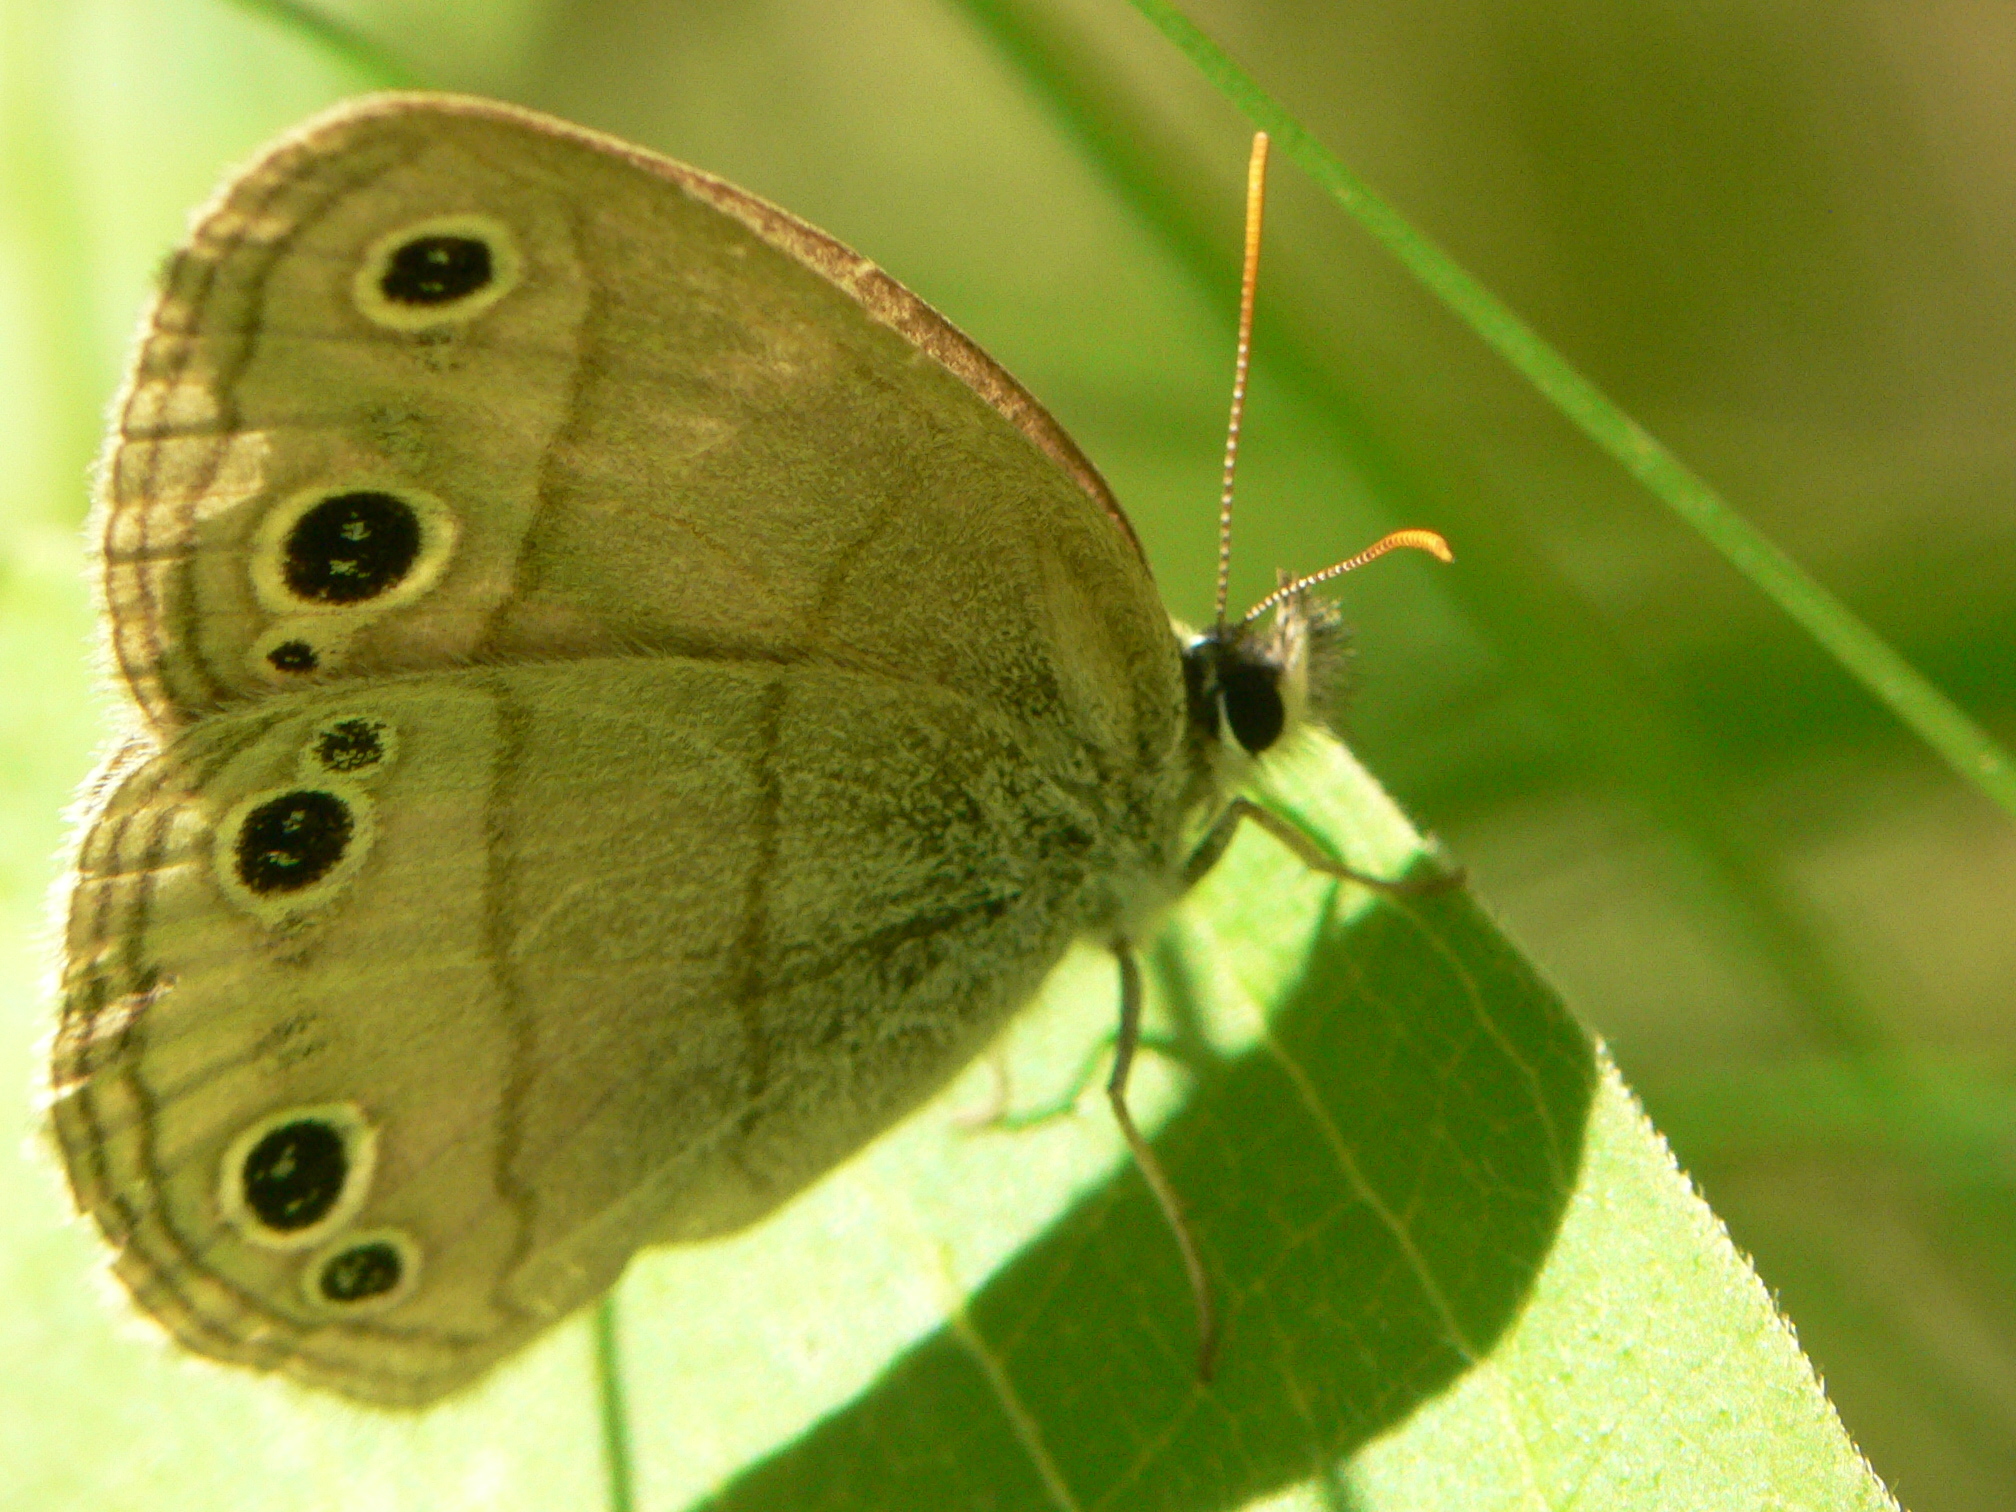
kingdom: Animalia
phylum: Arthropoda
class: Insecta
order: Lepidoptera
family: Nymphalidae
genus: Euptychia
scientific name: Euptychia cymela
